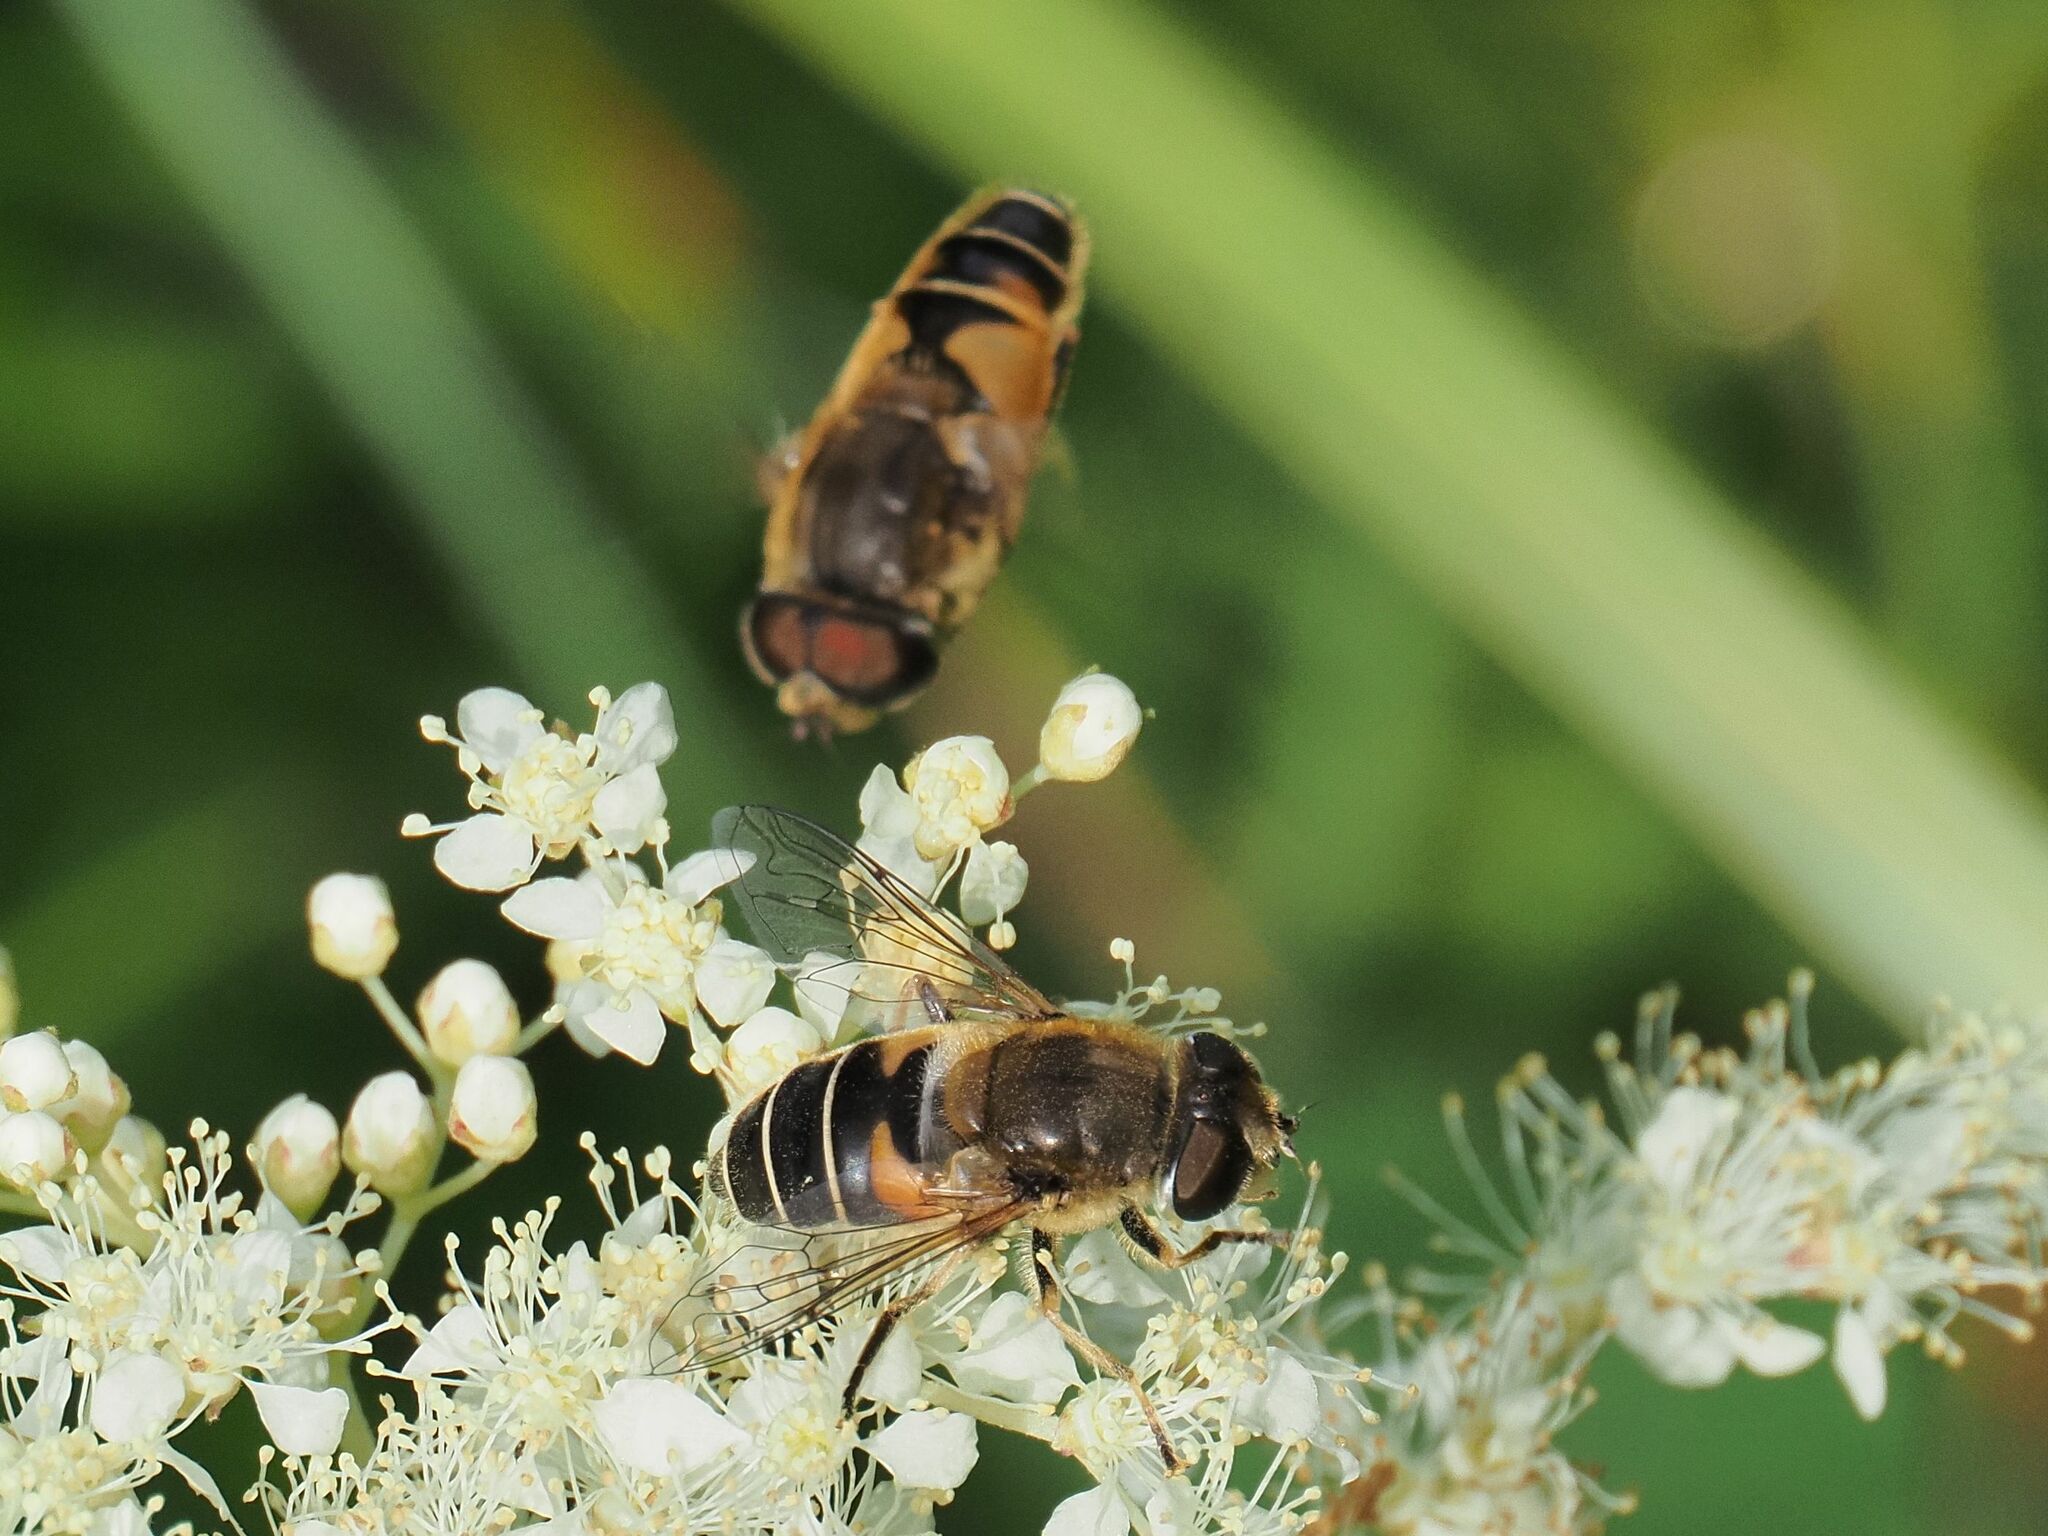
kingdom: Animalia
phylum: Arthropoda
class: Insecta
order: Diptera
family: Syrphidae
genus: Eristalis
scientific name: Eristalis nemorum
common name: Orange-spined drone fly
